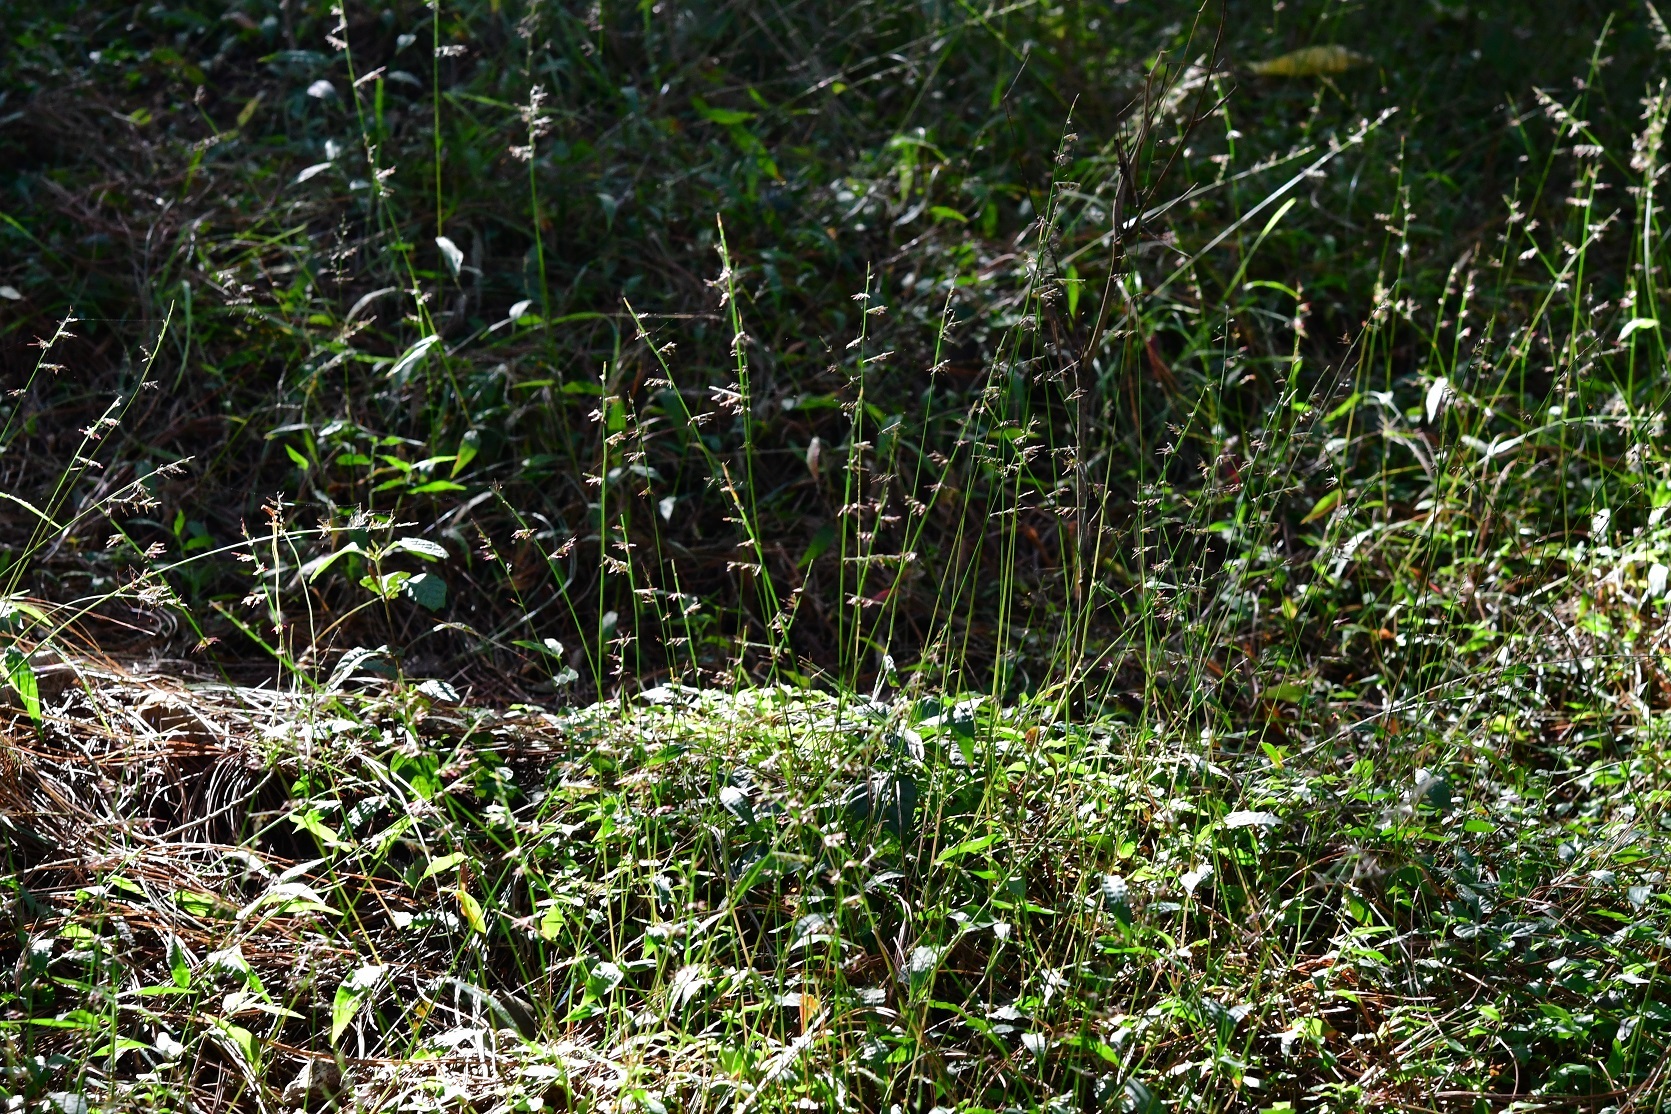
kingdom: Plantae
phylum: Tracheophyta
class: Liliopsida
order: Poales
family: Poaceae
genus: Oplismenus
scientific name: Oplismenus hirtellus
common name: Basketgrass
